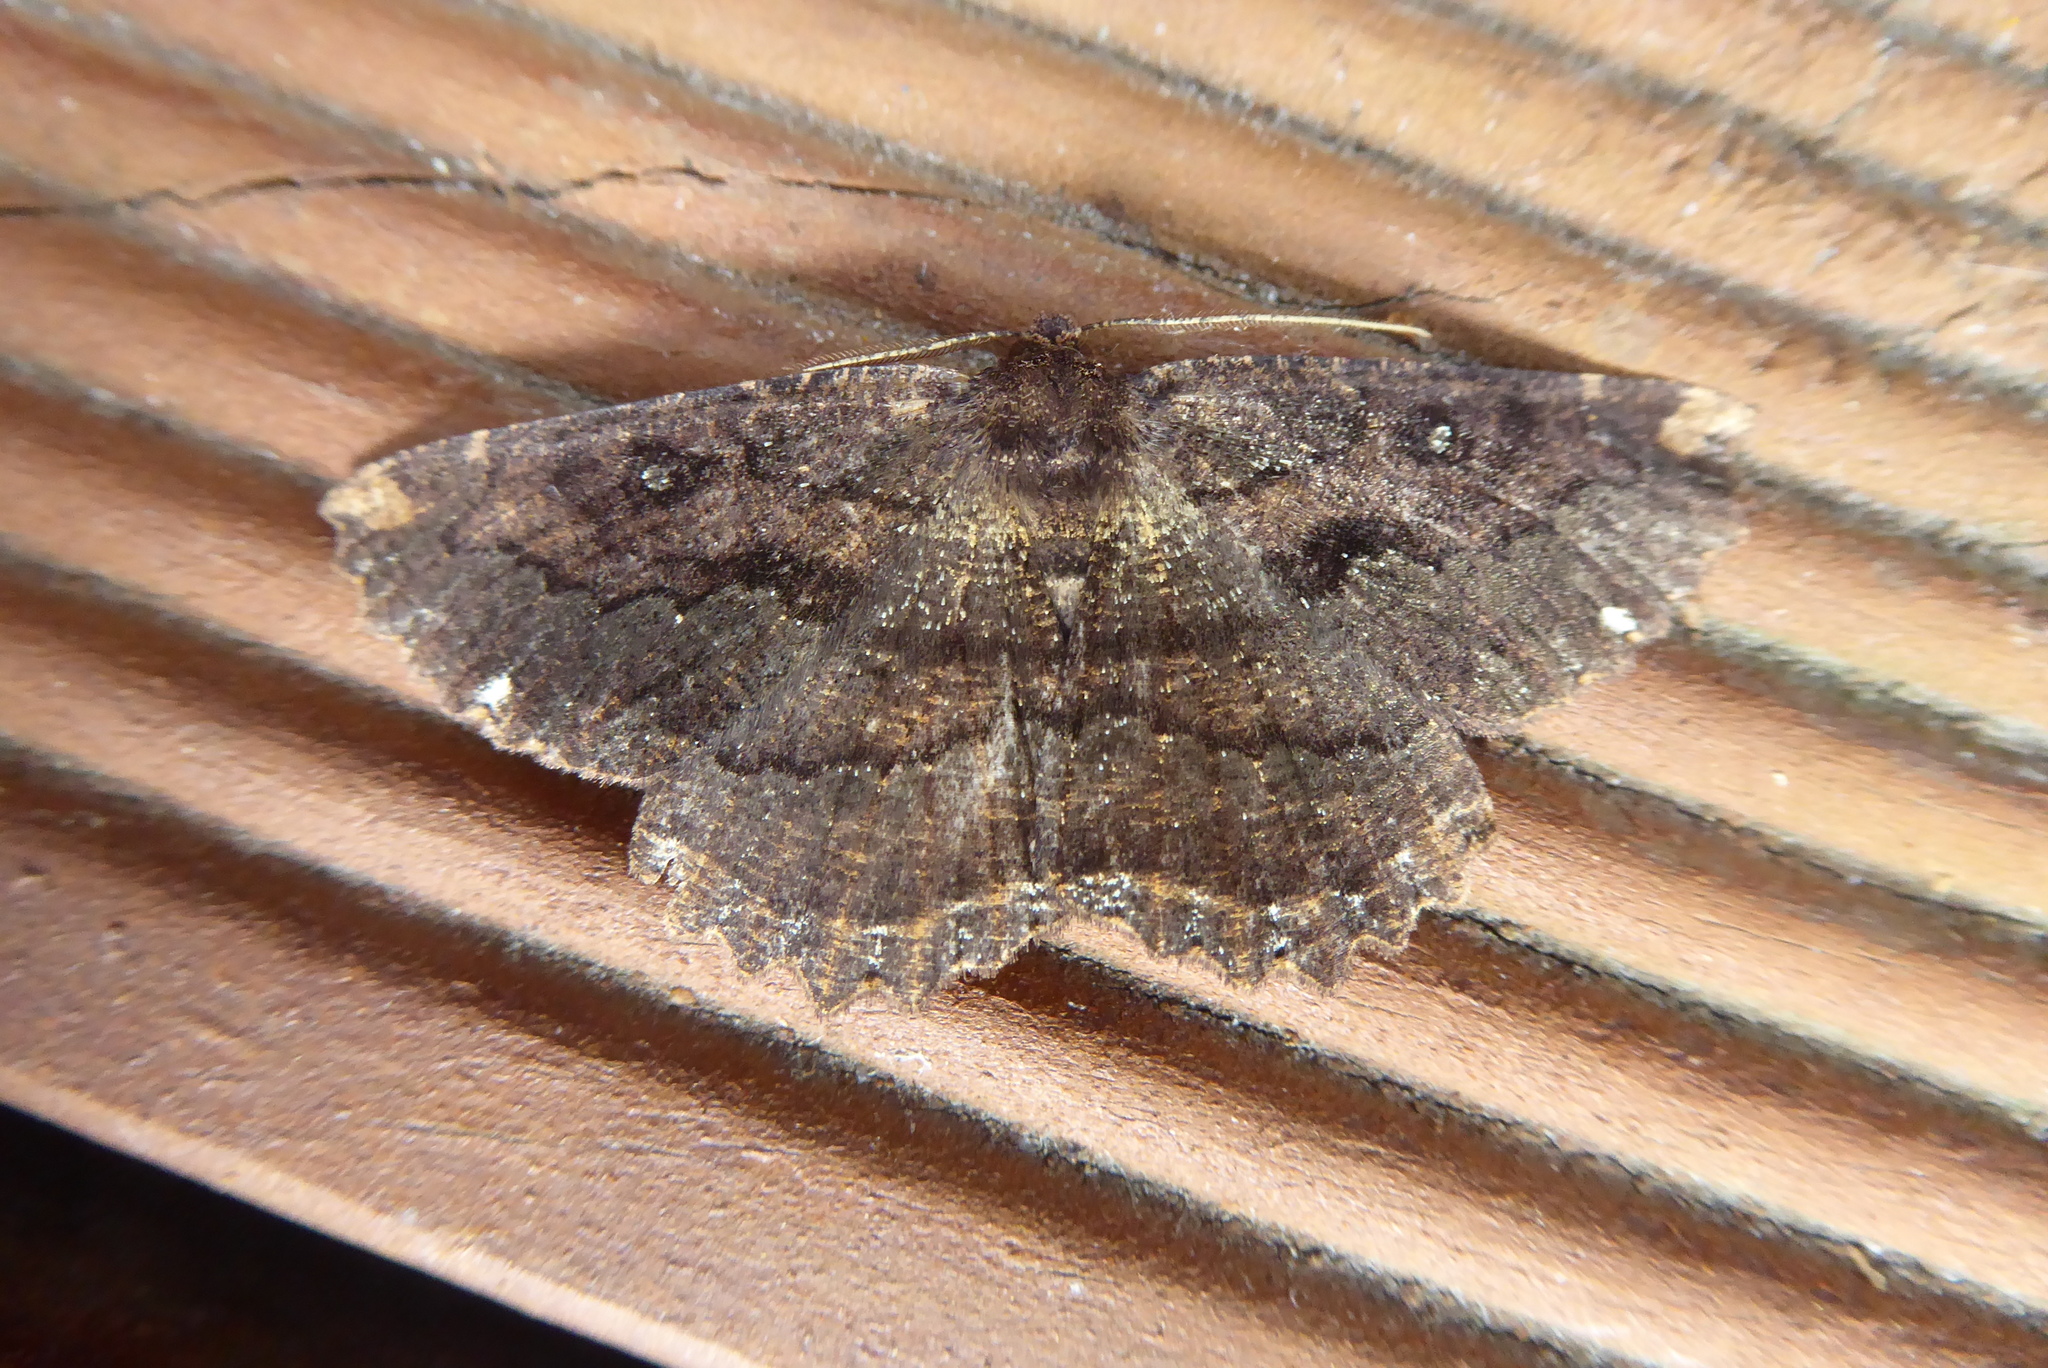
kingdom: Animalia
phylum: Arthropoda
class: Insecta
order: Lepidoptera
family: Geometridae
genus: Gellonia
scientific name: Gellonia pannularia
